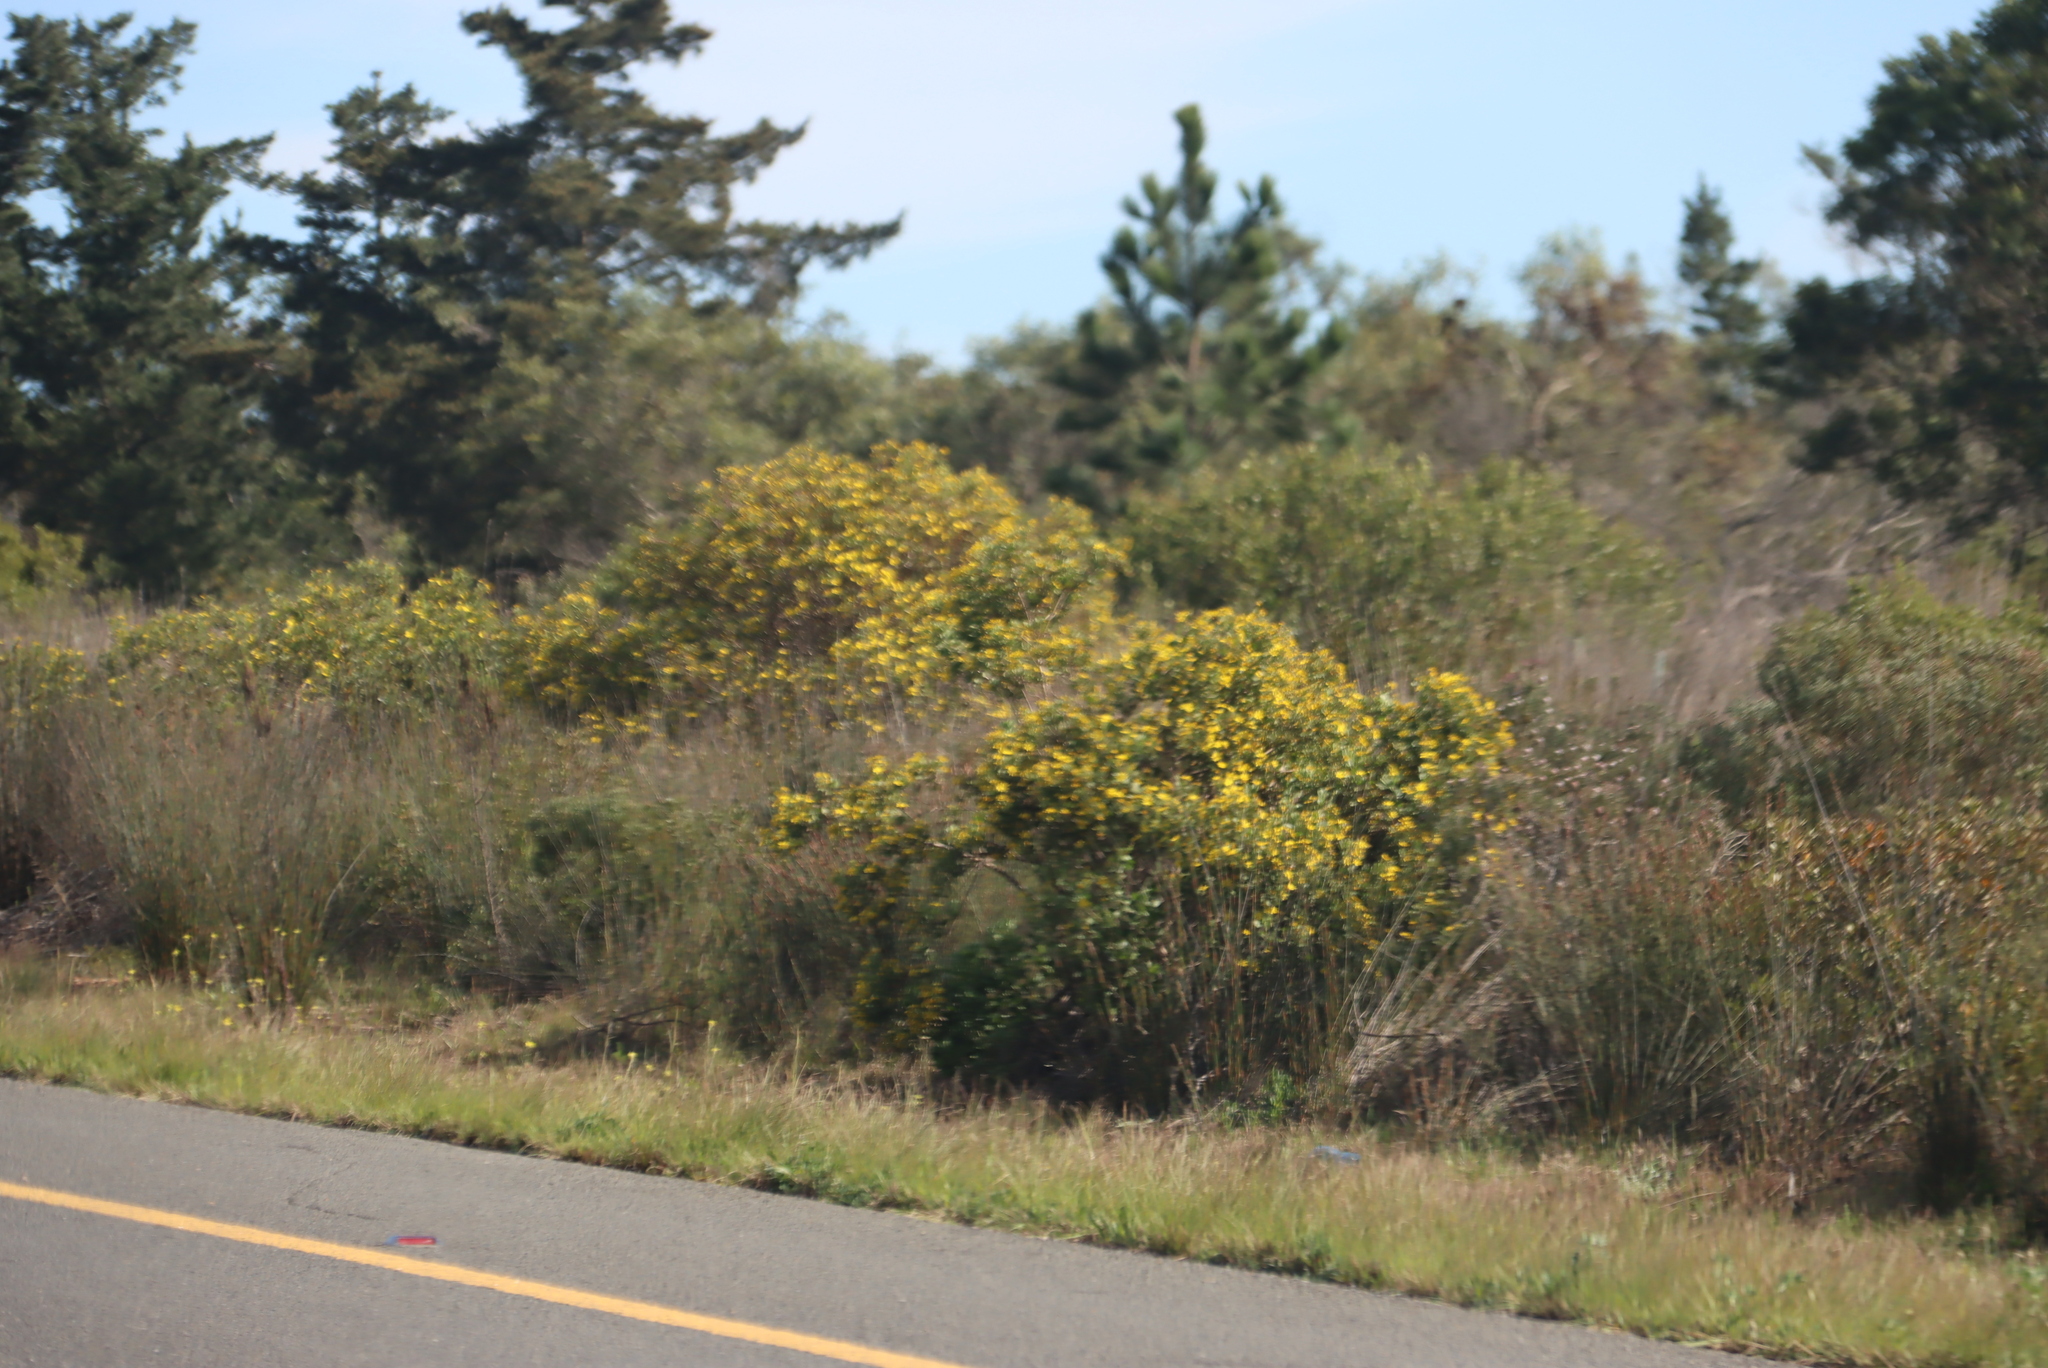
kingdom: Plantae
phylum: Tracheophyta
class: Magnoliopsida
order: Asterales
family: Asteraceae
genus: Osteospermum
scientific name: Osteospermum moniliferum
